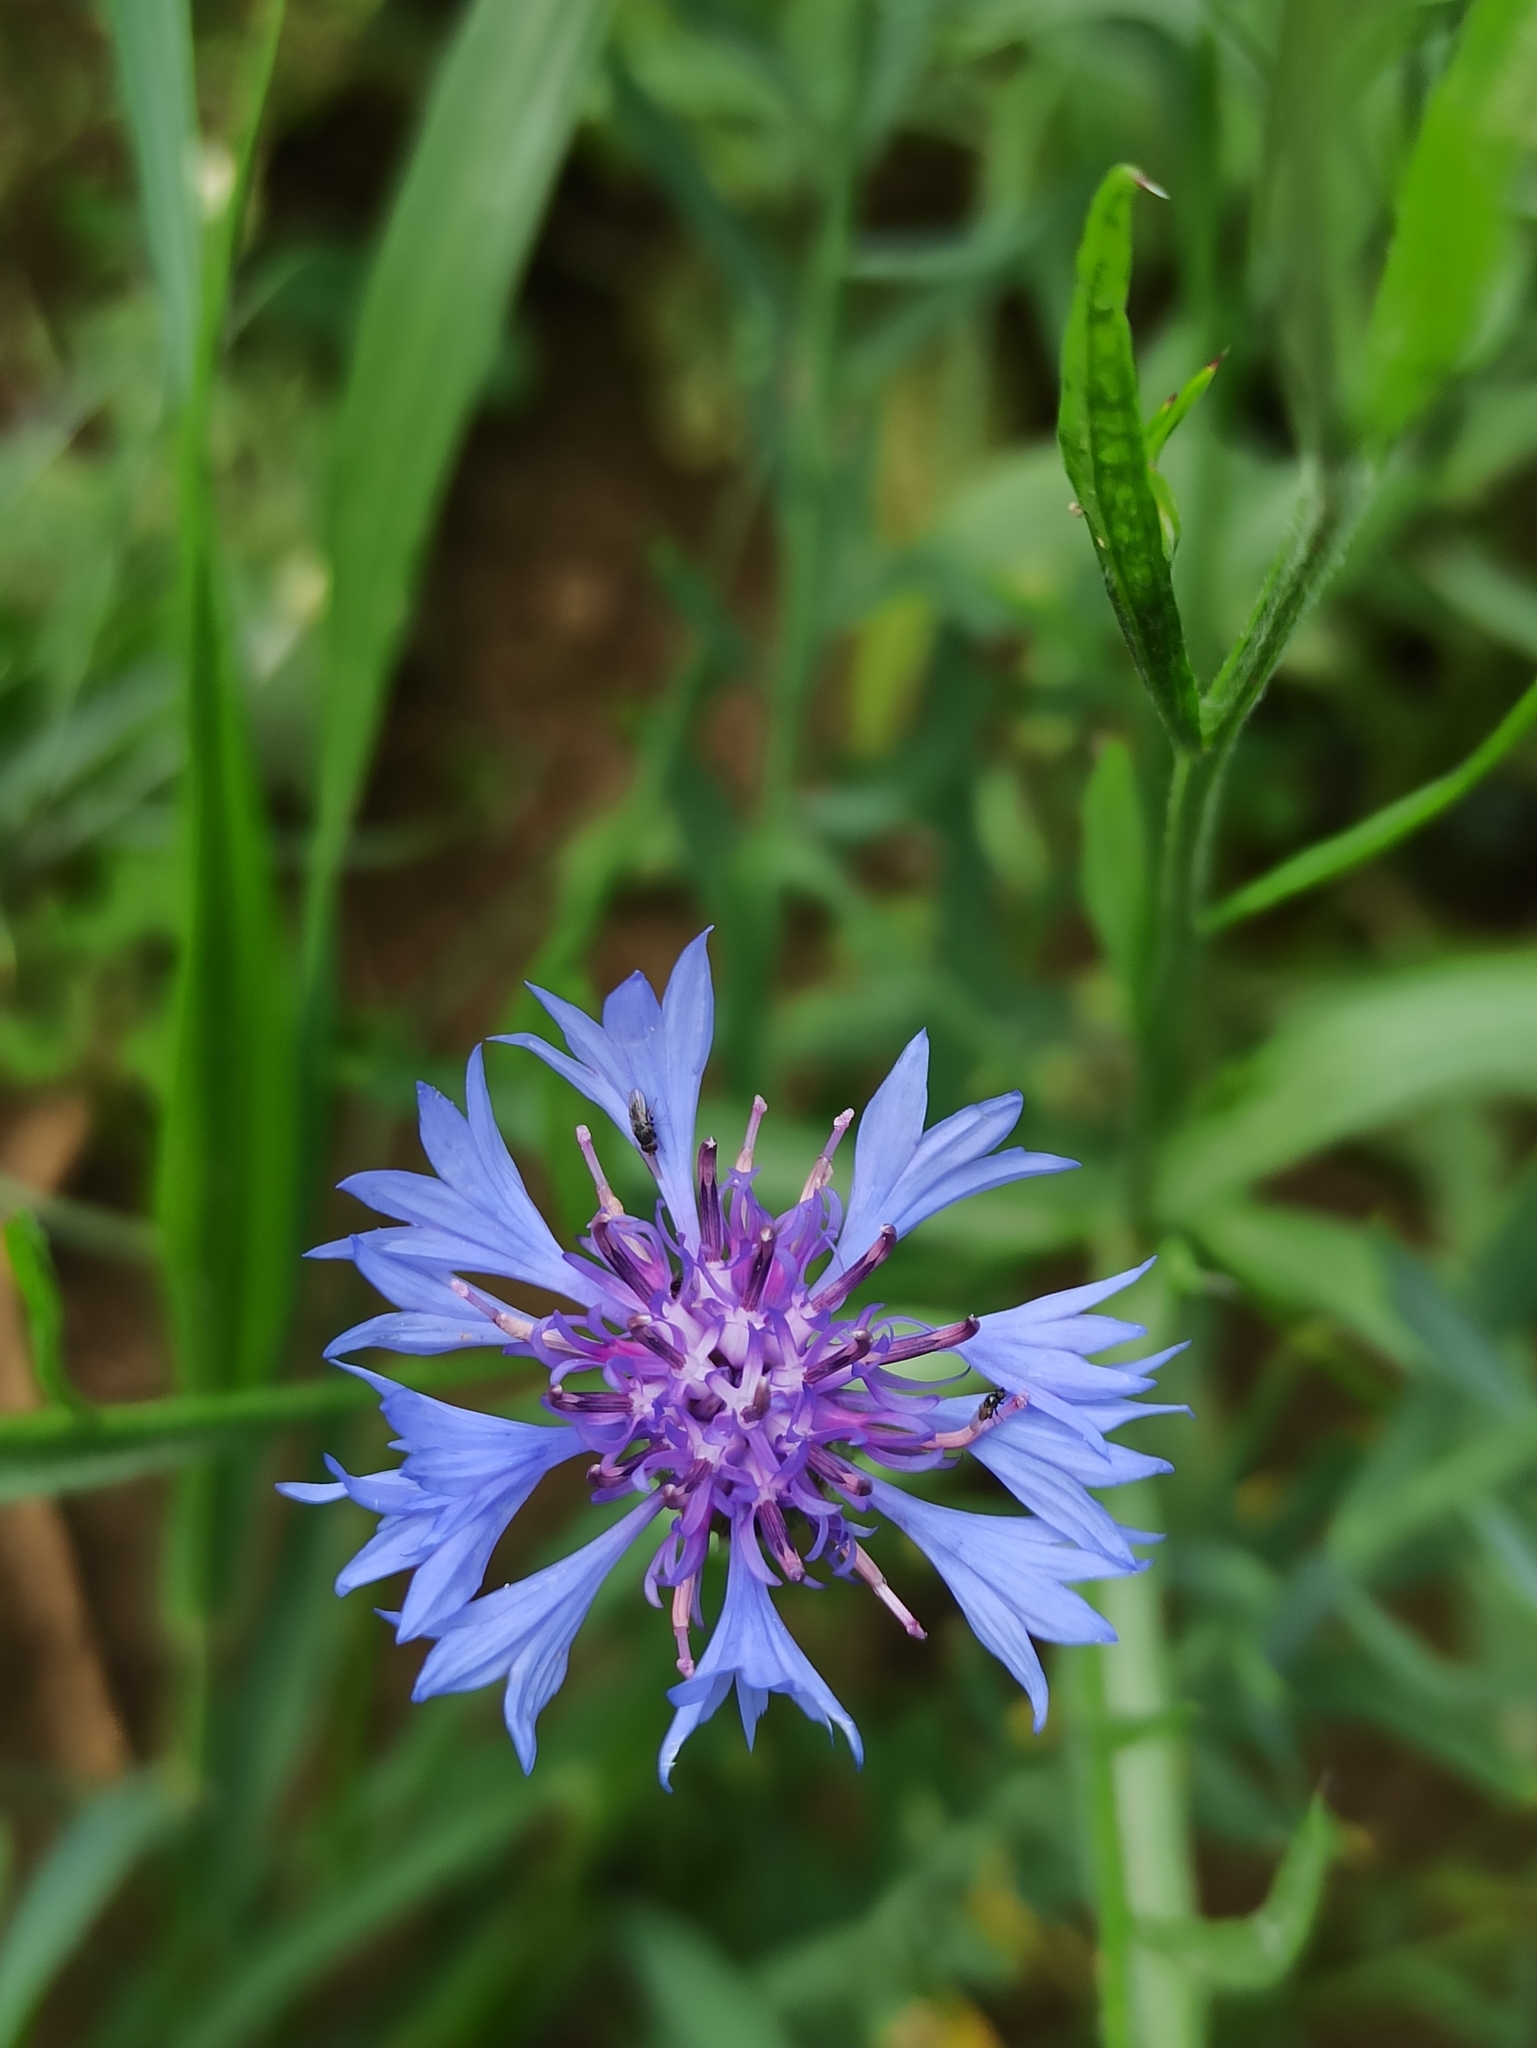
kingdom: Plantae
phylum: Tracheophyta
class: Magnoliopsida
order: Asterales
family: Asteraceae
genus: Centaurea
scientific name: Centaurea cyanus
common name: Cornflower
